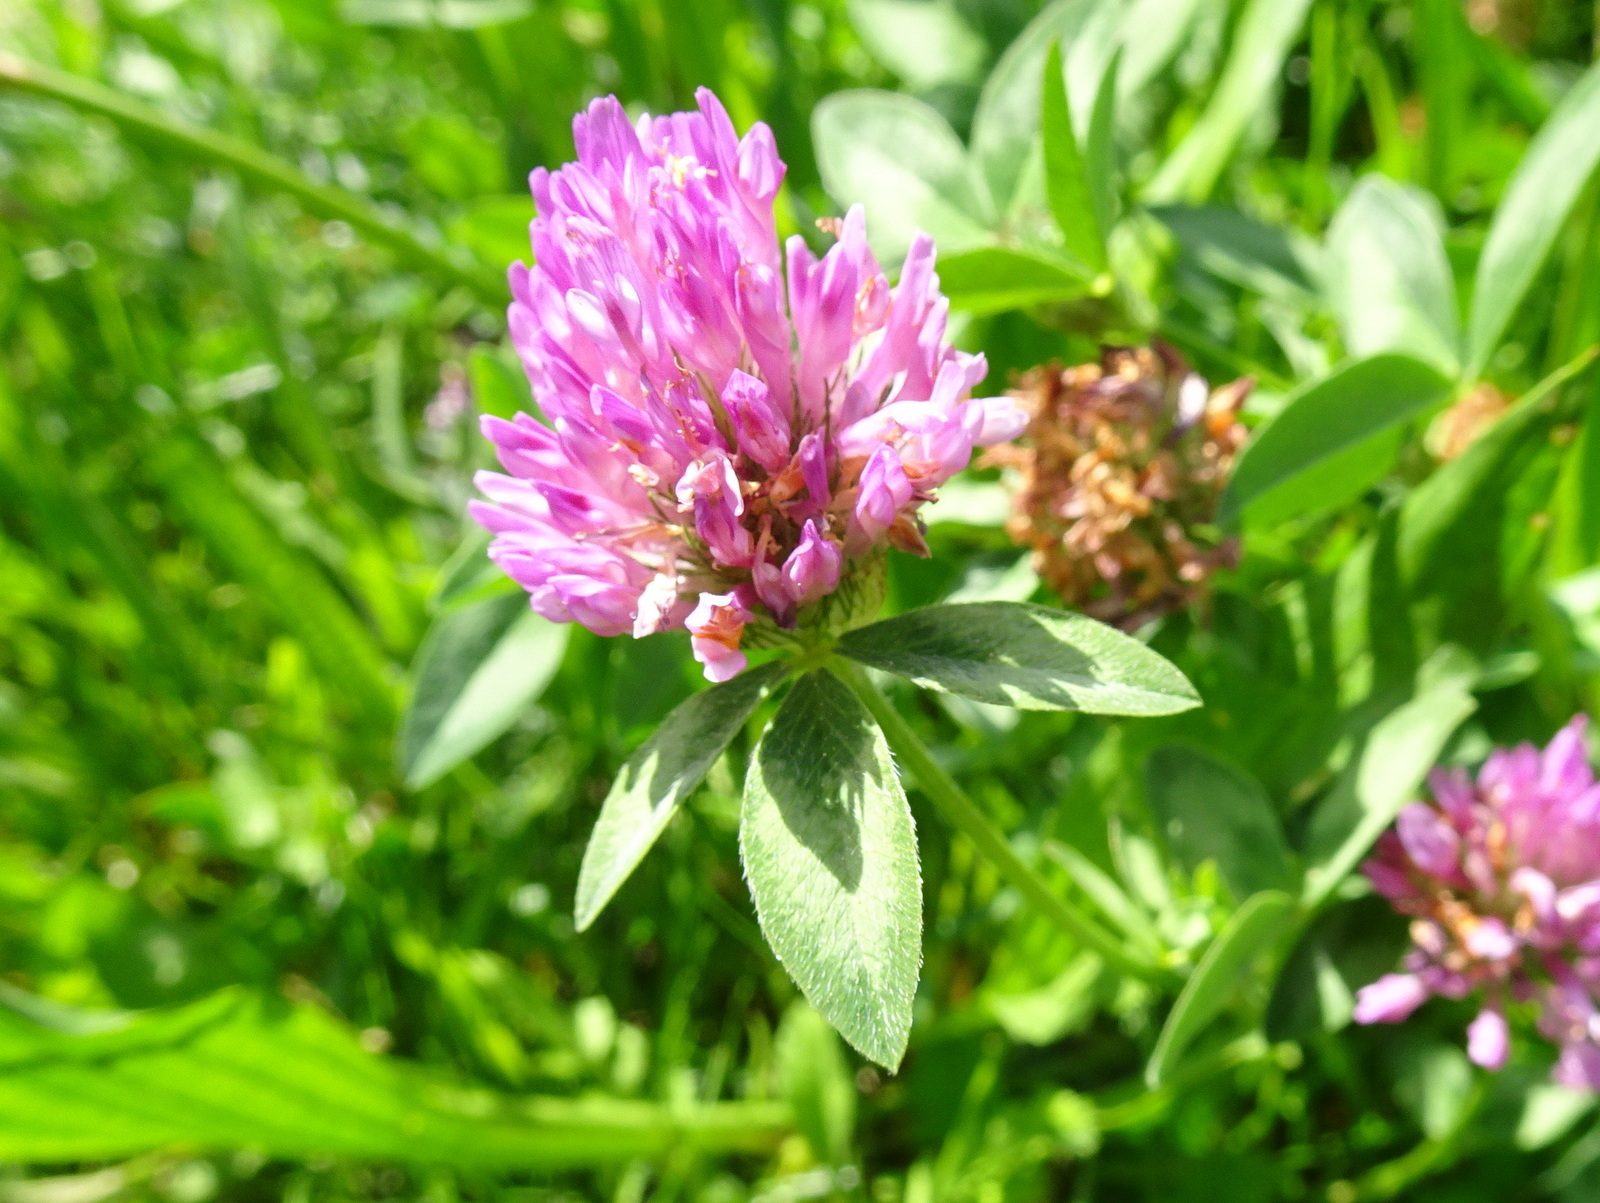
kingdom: Plantae
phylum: Tracheophyta
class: Magnoliopsida
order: Fabales
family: Fabaceae
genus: Trifolium
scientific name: Trifolium pratense
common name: Red clover
